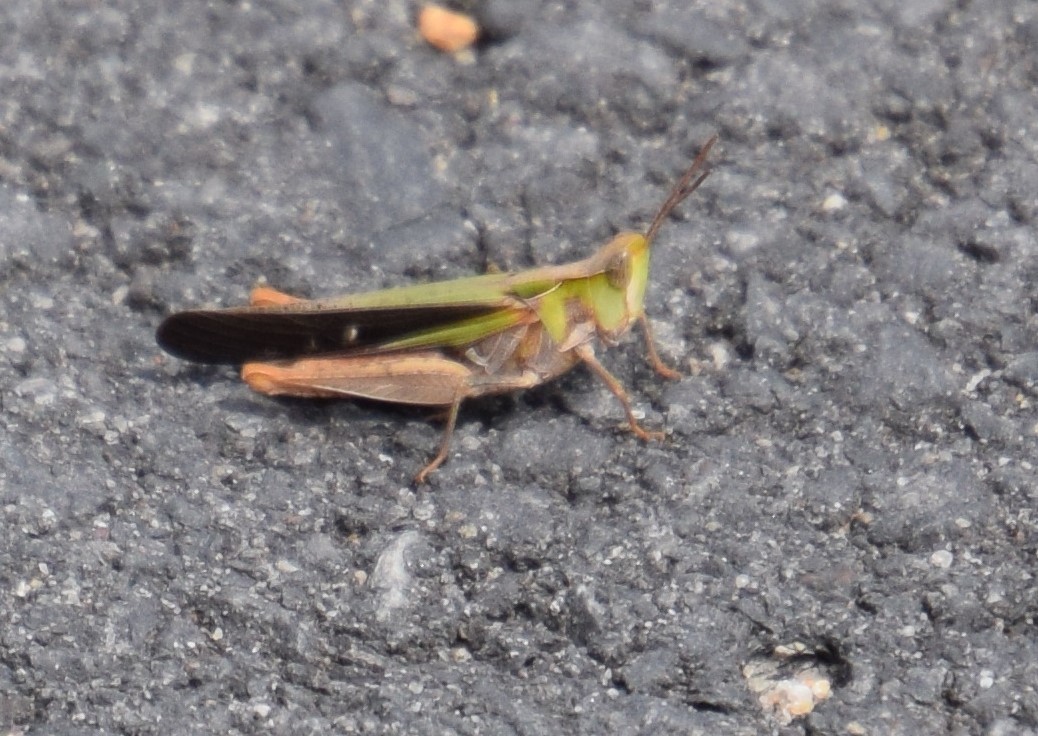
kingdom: Animalia
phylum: Arthropoda
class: Insecta
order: Orthoptera
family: Acrididae
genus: Froggattina
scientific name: Froggattina australis
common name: Froggatt's buzzer
